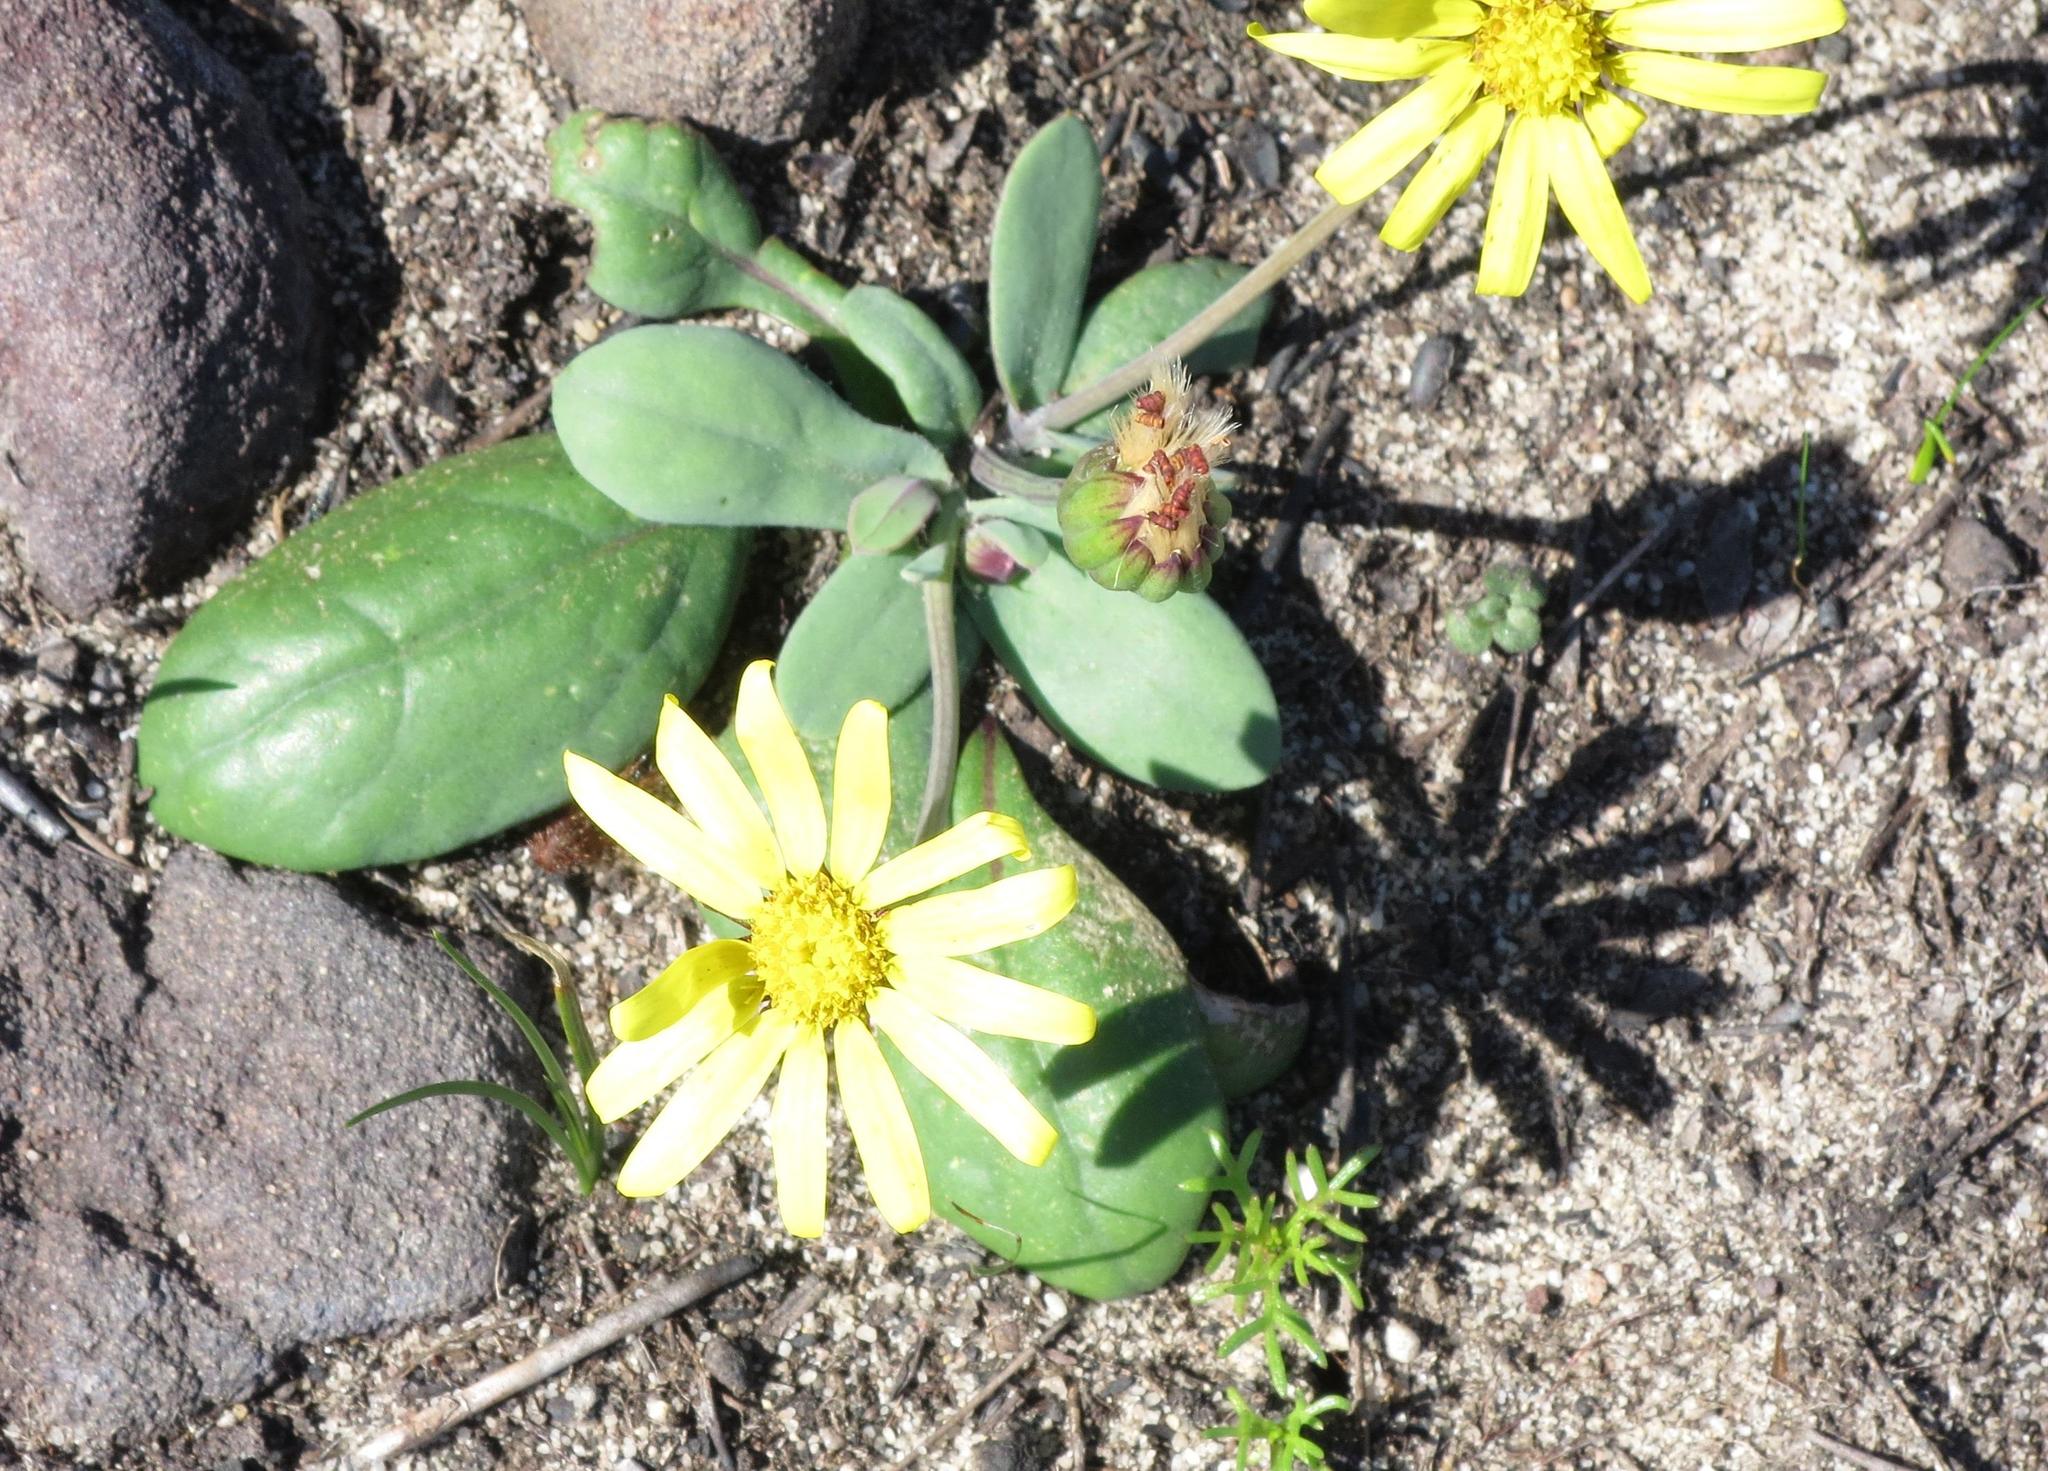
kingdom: Plantae
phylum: Tracheophyta
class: Magnoliopsida
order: Asterales
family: Asteraceae
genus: Othonna
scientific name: Othonna heterophylla
